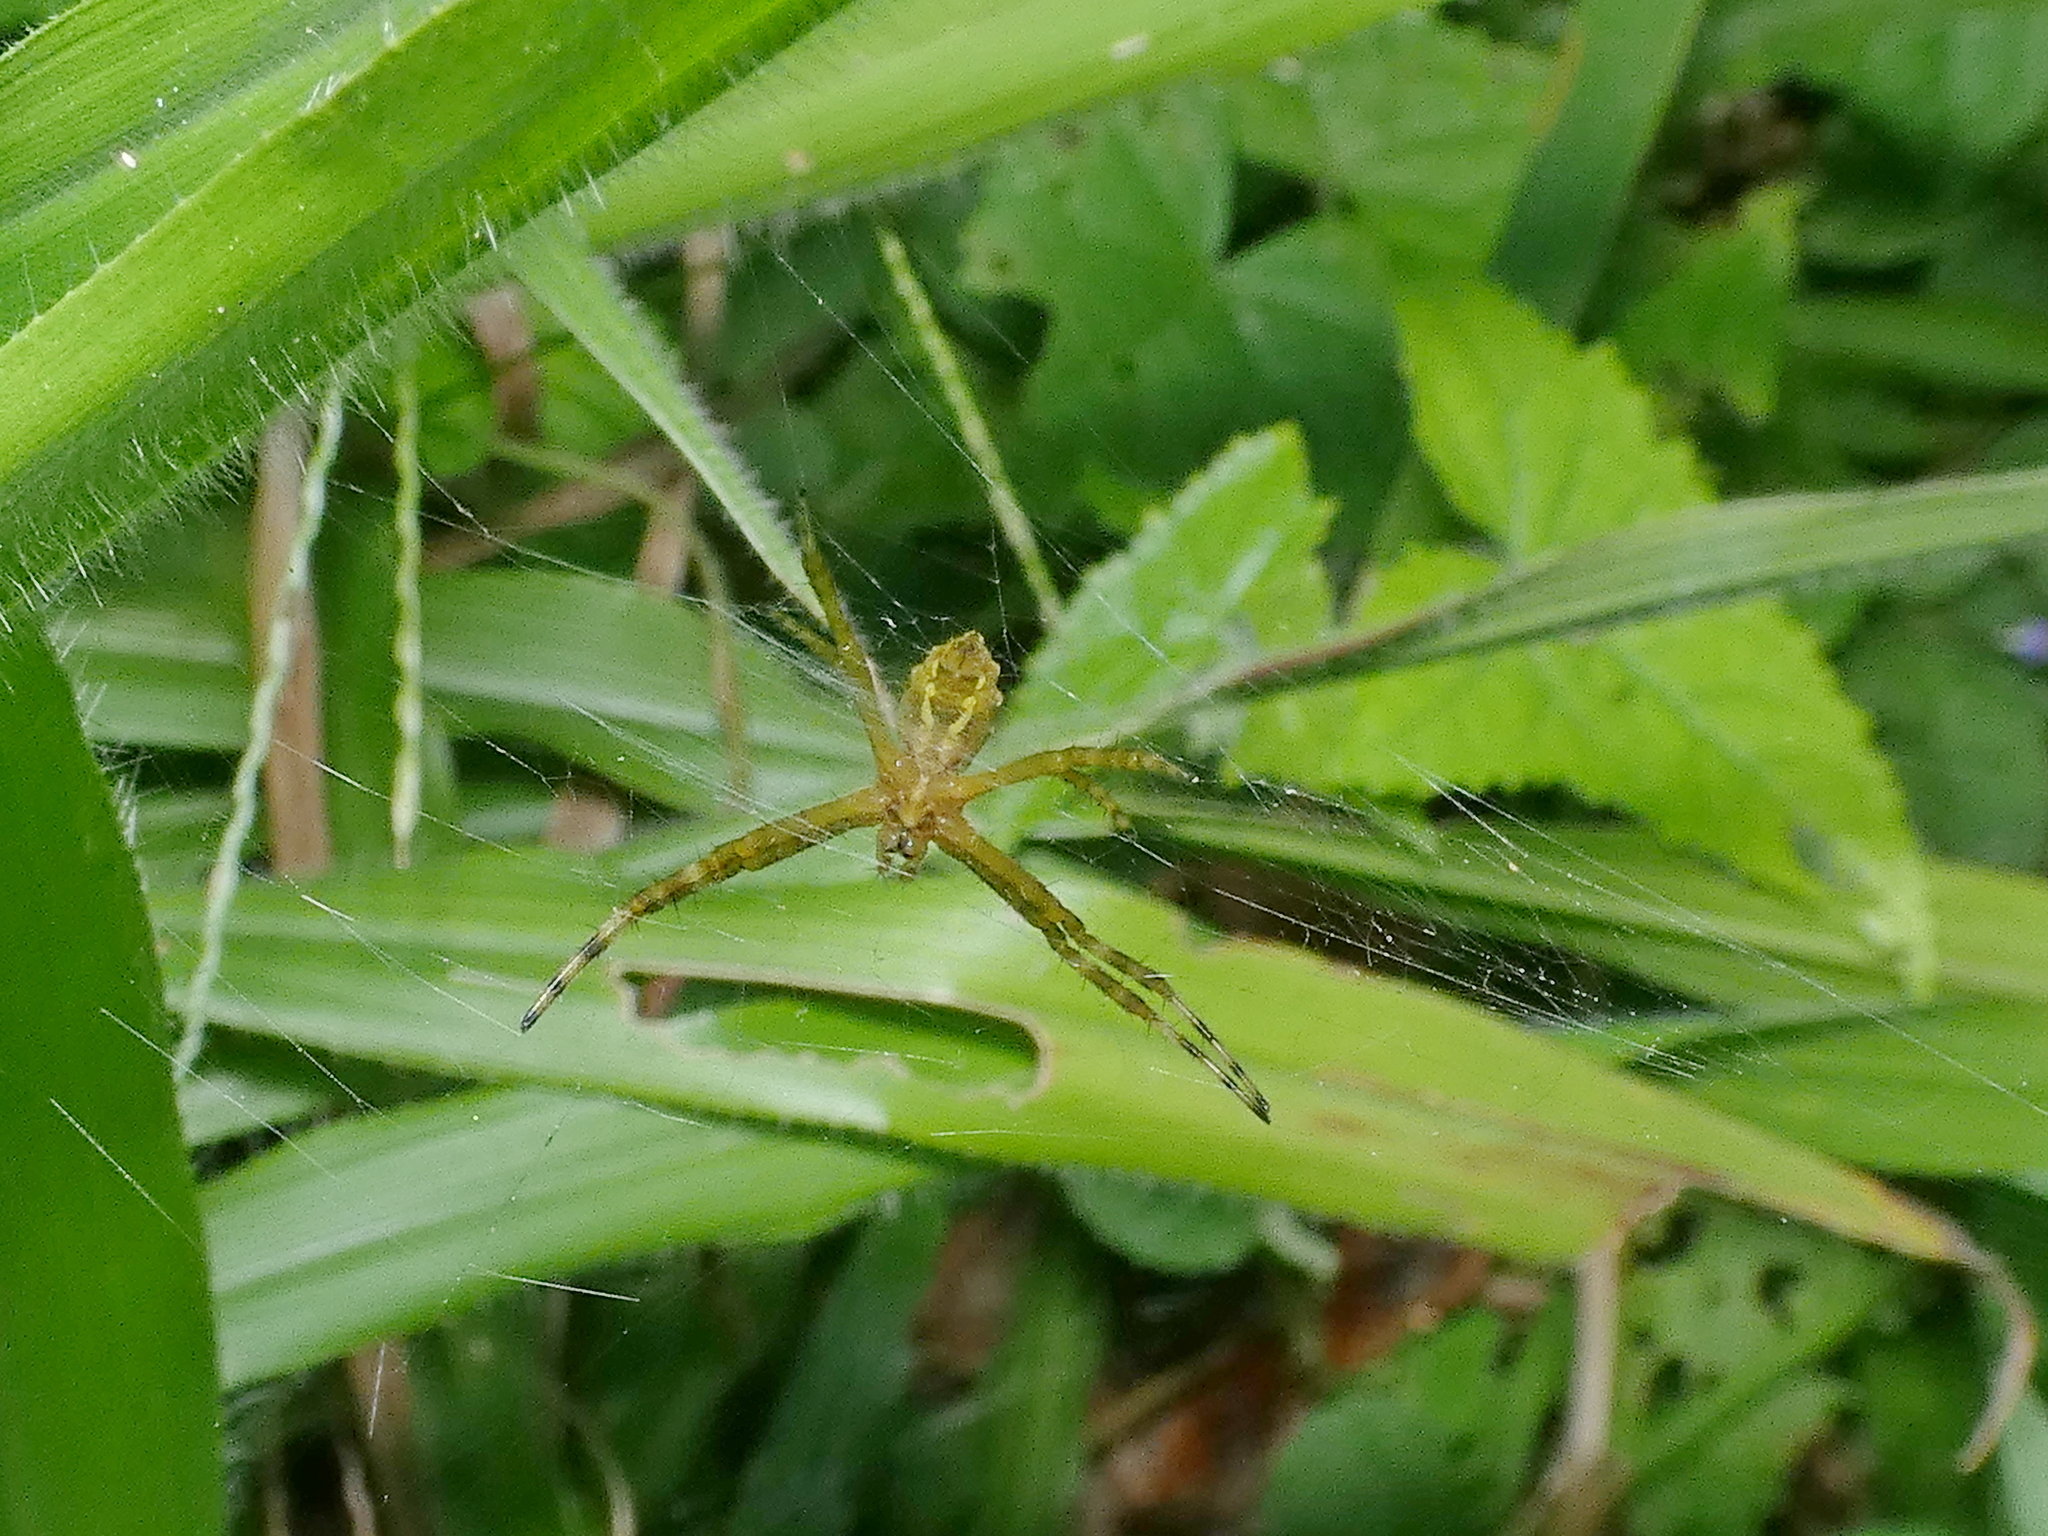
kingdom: Animalia
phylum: Arthropoda
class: Arachnida
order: Araneae
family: Araneidae
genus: Argiope
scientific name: Argiope argentata
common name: Orb weavers
